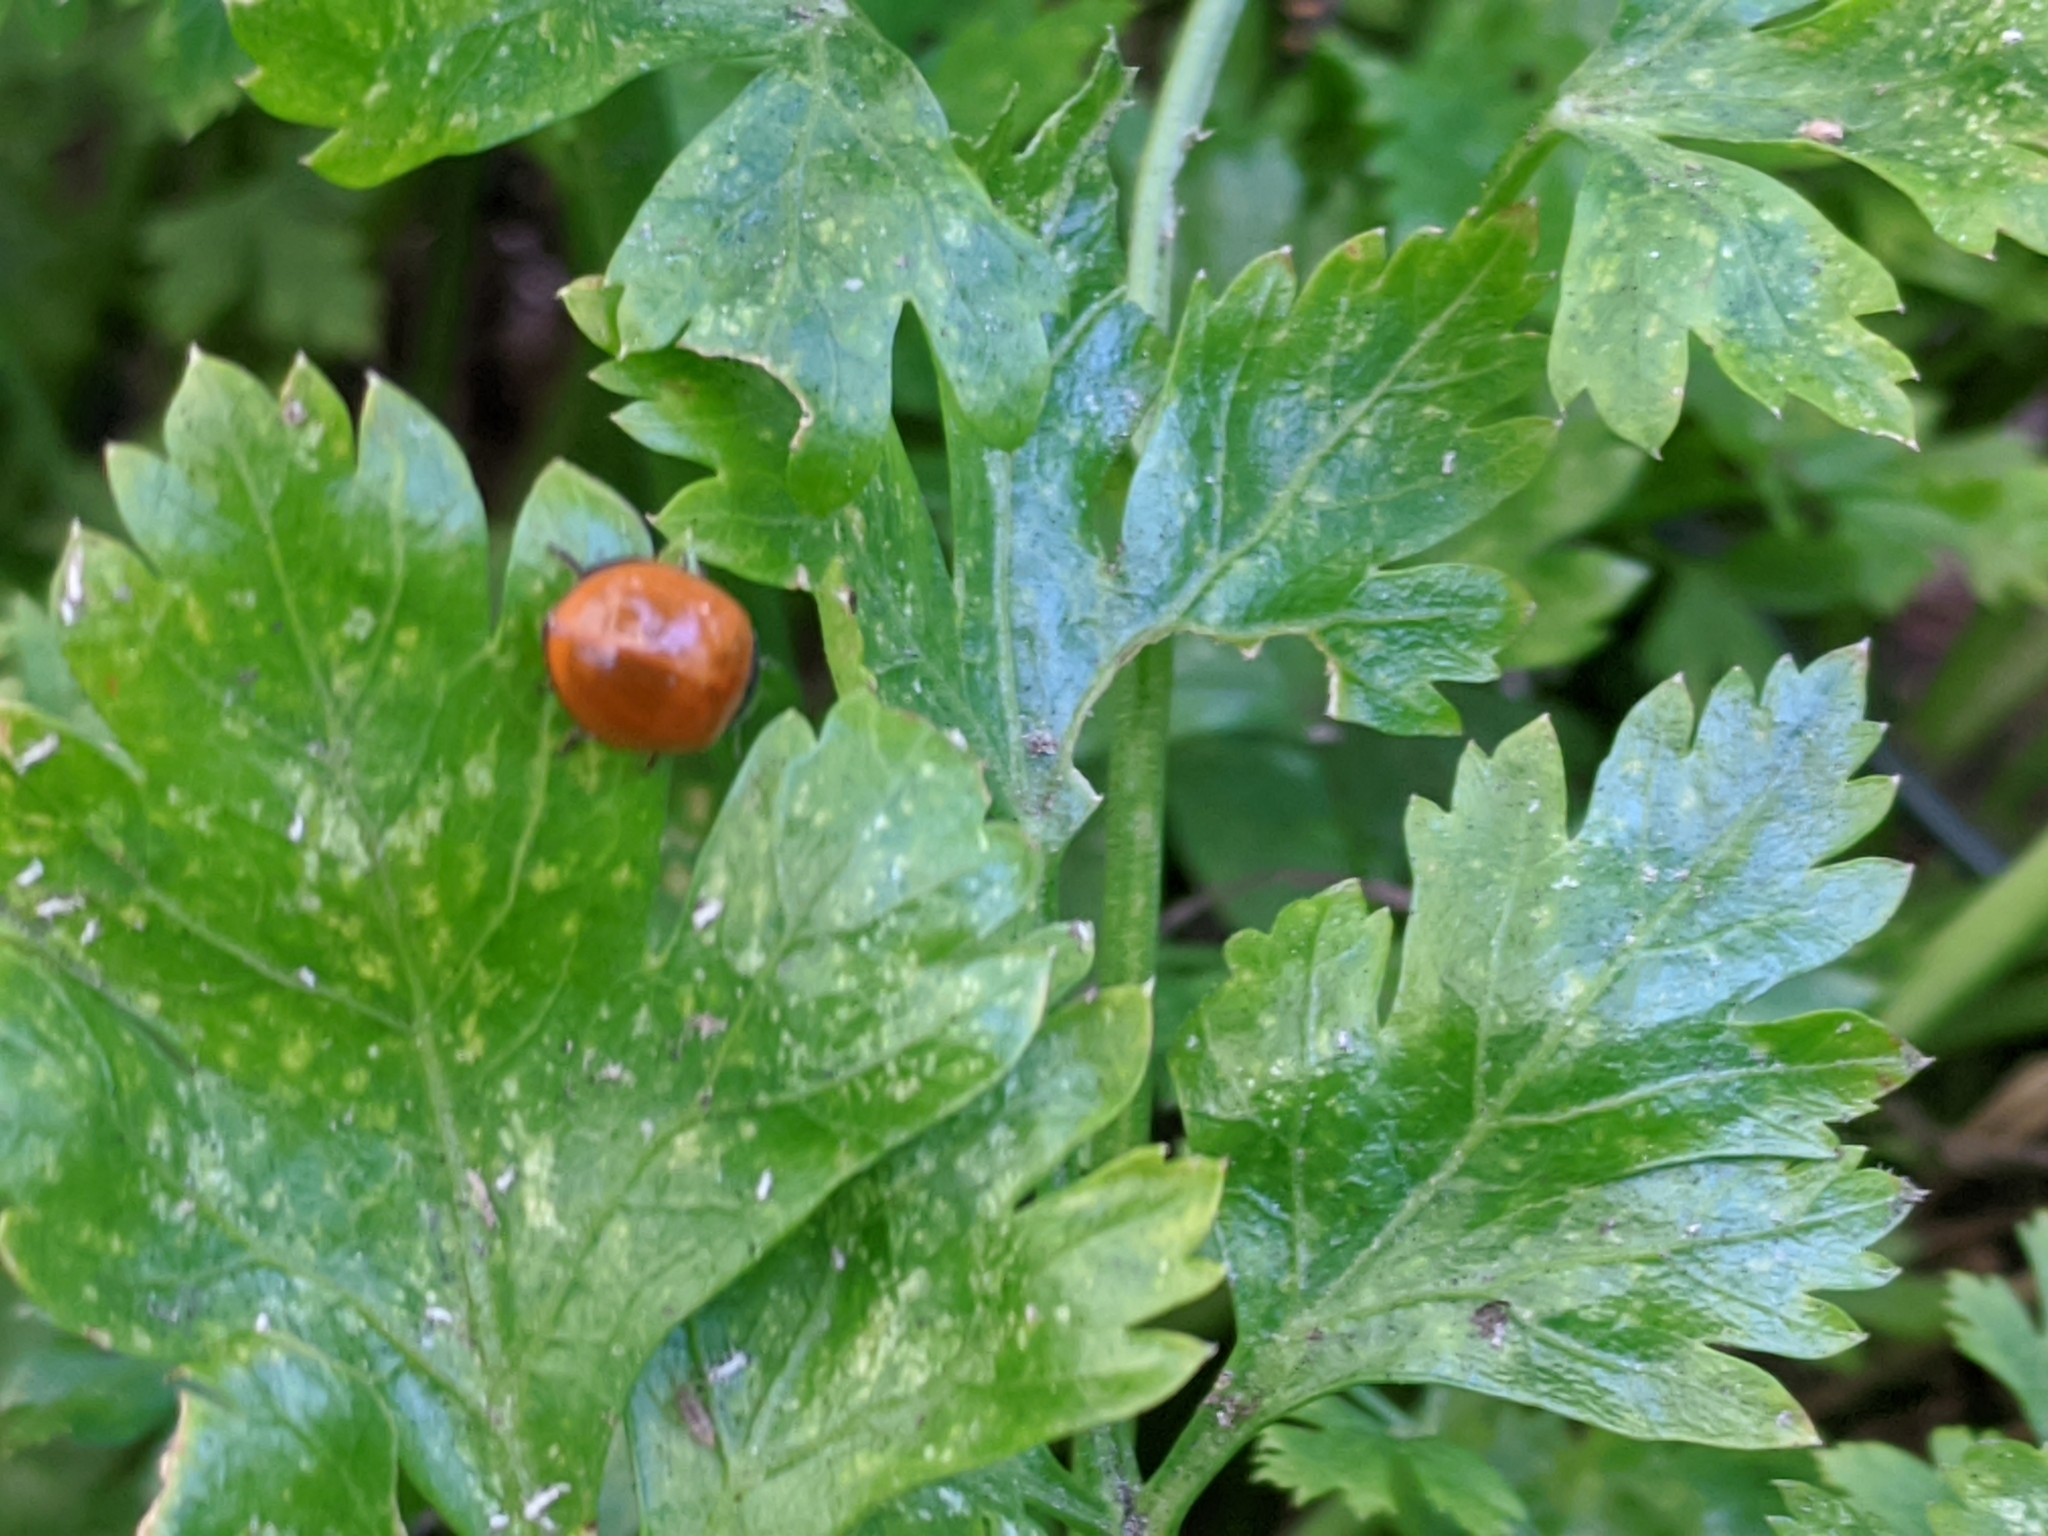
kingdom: Animalia
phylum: Arthropoda
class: Insecta
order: Coleoptera
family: Coccinellidae
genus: Cycloneda
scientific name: Cycloneda sanguinea
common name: Ladybird beetle
